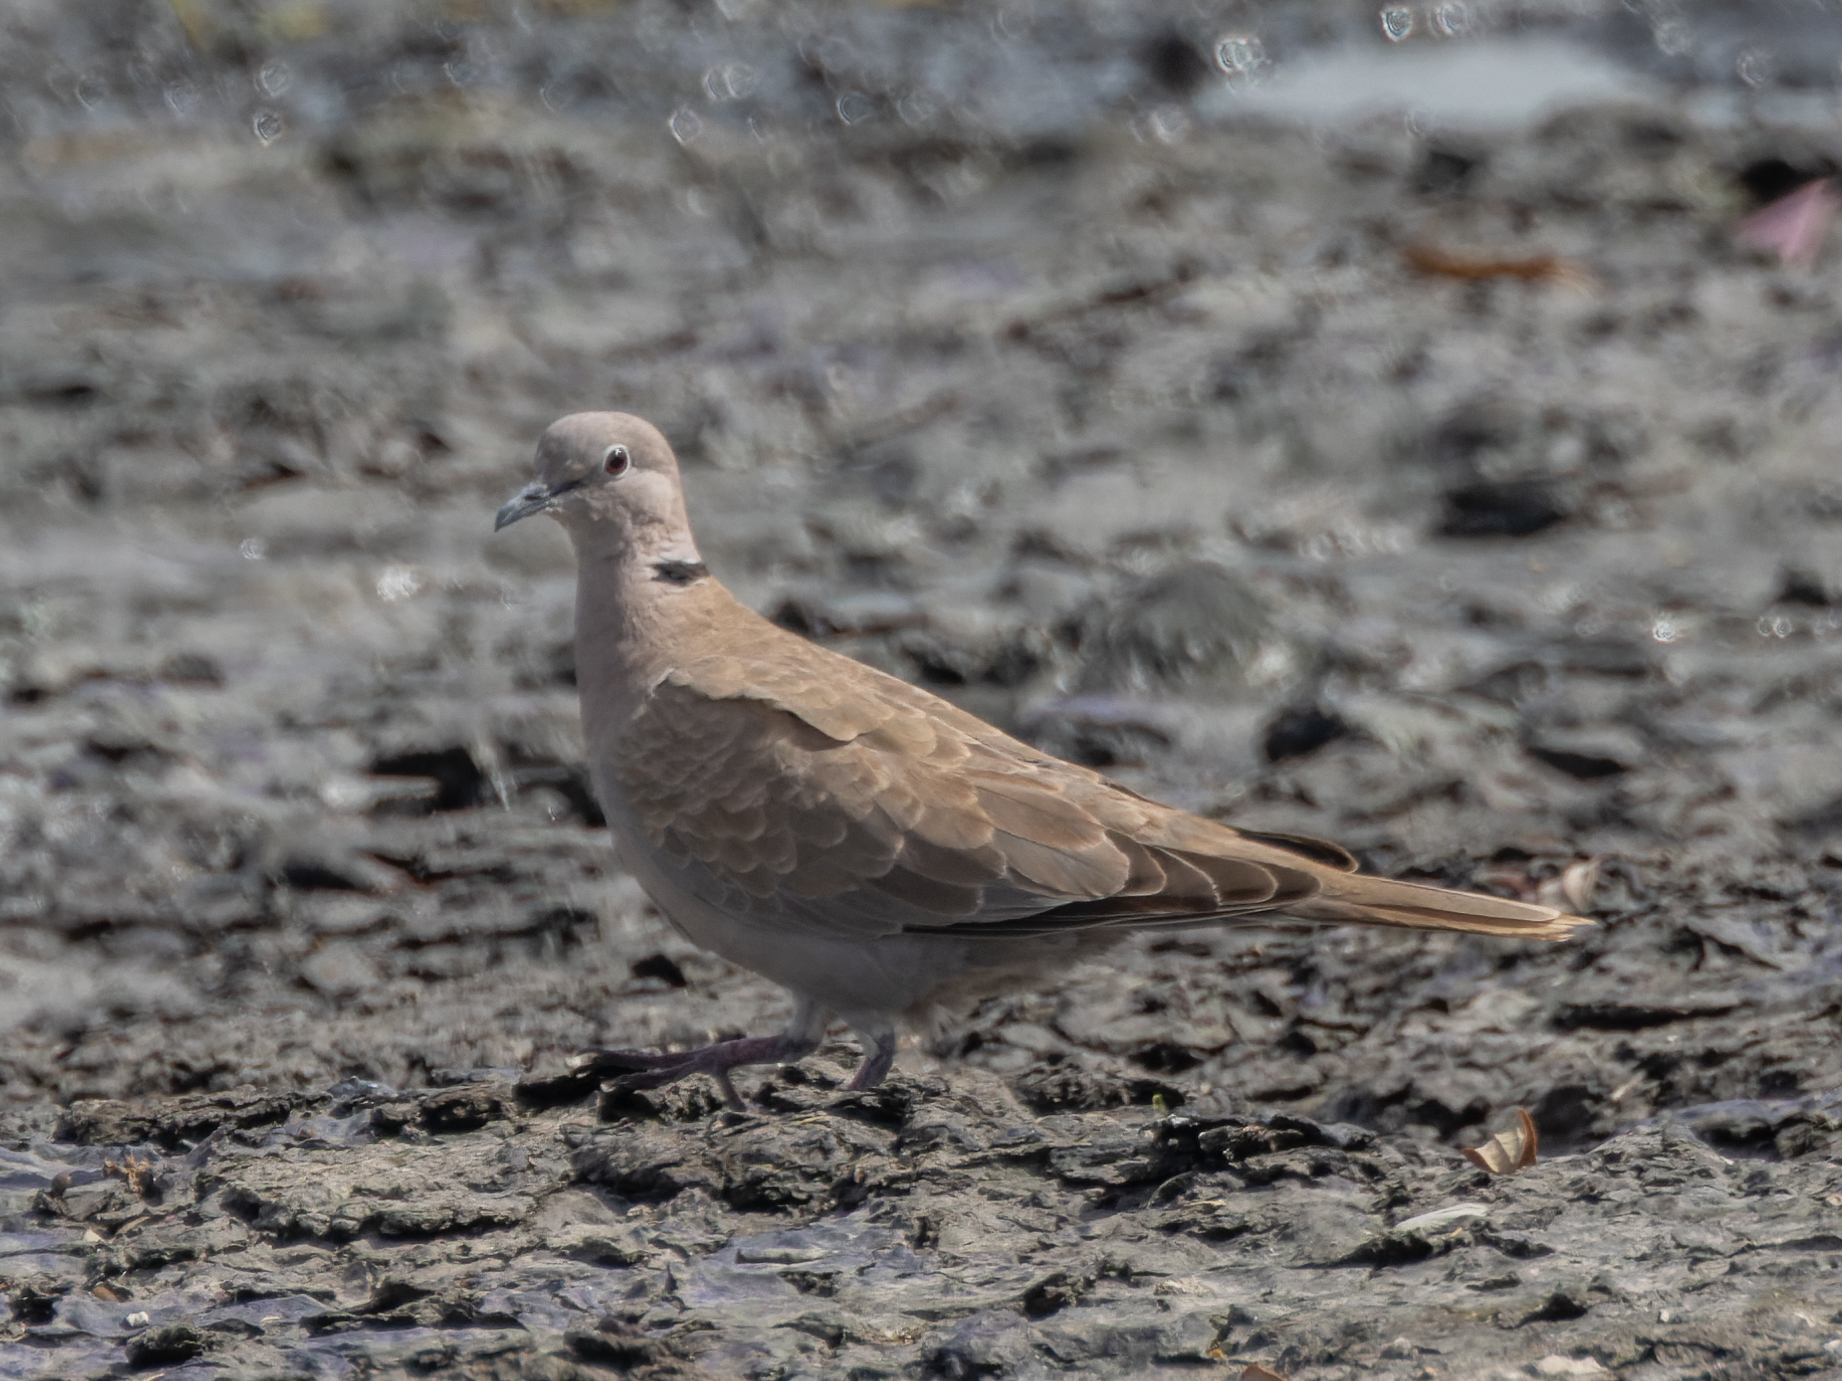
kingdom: Animalia
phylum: Chordata
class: Aves
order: Columbiformes
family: Columbidae
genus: Streptopelia
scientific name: Streptopelia decaocto
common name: Eurasian collared dove
